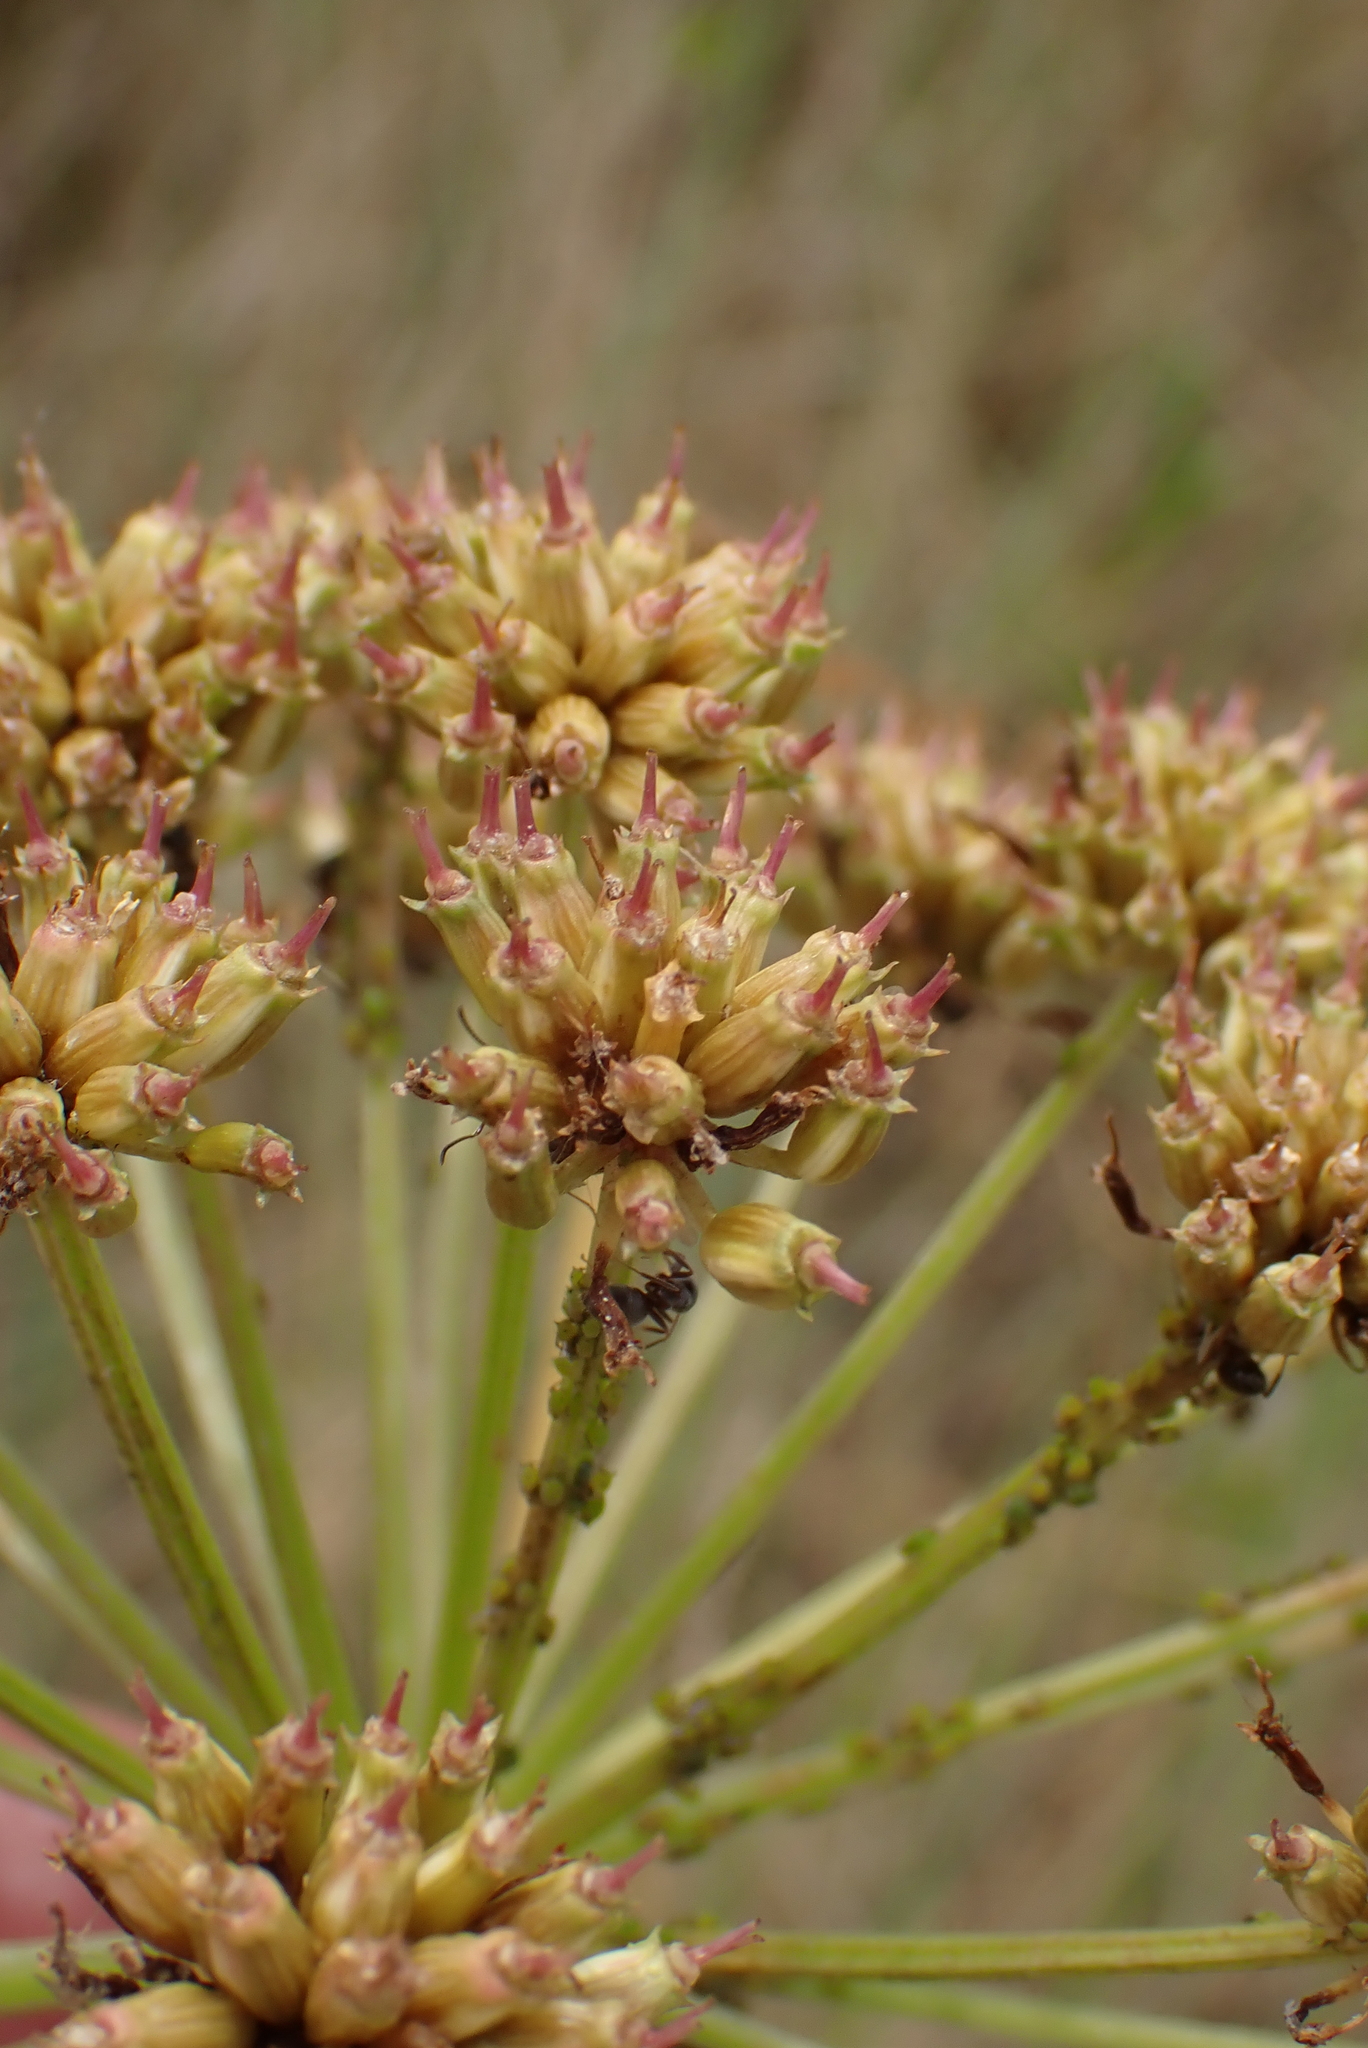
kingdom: Plantae
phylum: Tracheophyta
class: Magnoliopsida
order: Apiales
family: Apiaceae
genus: Oenanthe
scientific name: Oenanthe crocata
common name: Hemlock water-dropwort
